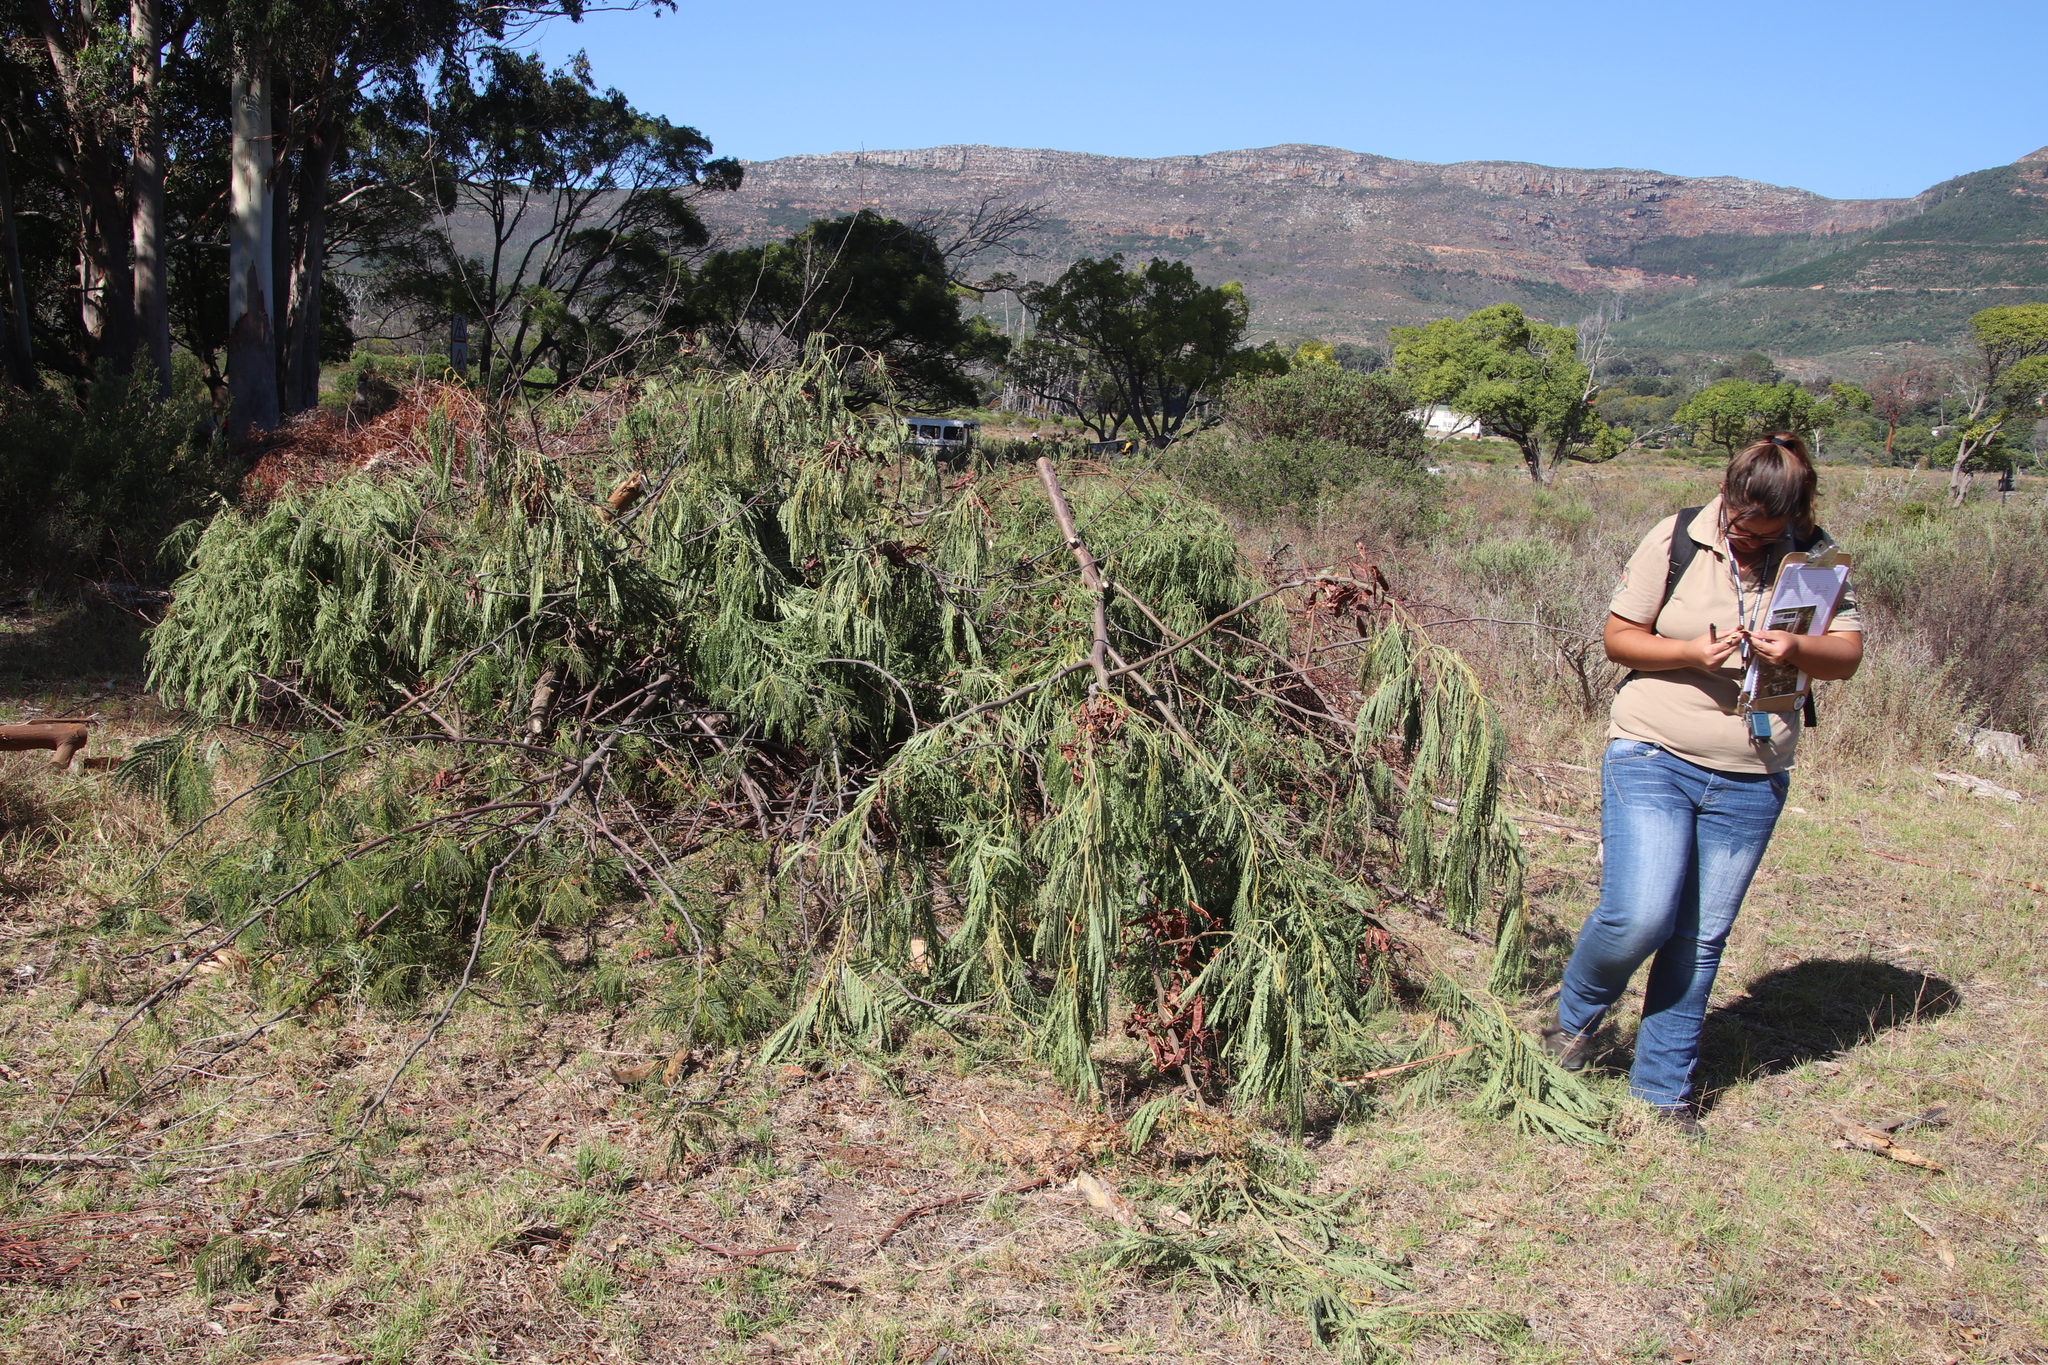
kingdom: Plantae
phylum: Tracheophyta
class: Magnoliopsida
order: Fabales
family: Fabaceae
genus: Paraserianthes
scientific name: Paraserianthes lophantha
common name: Plume albizia
